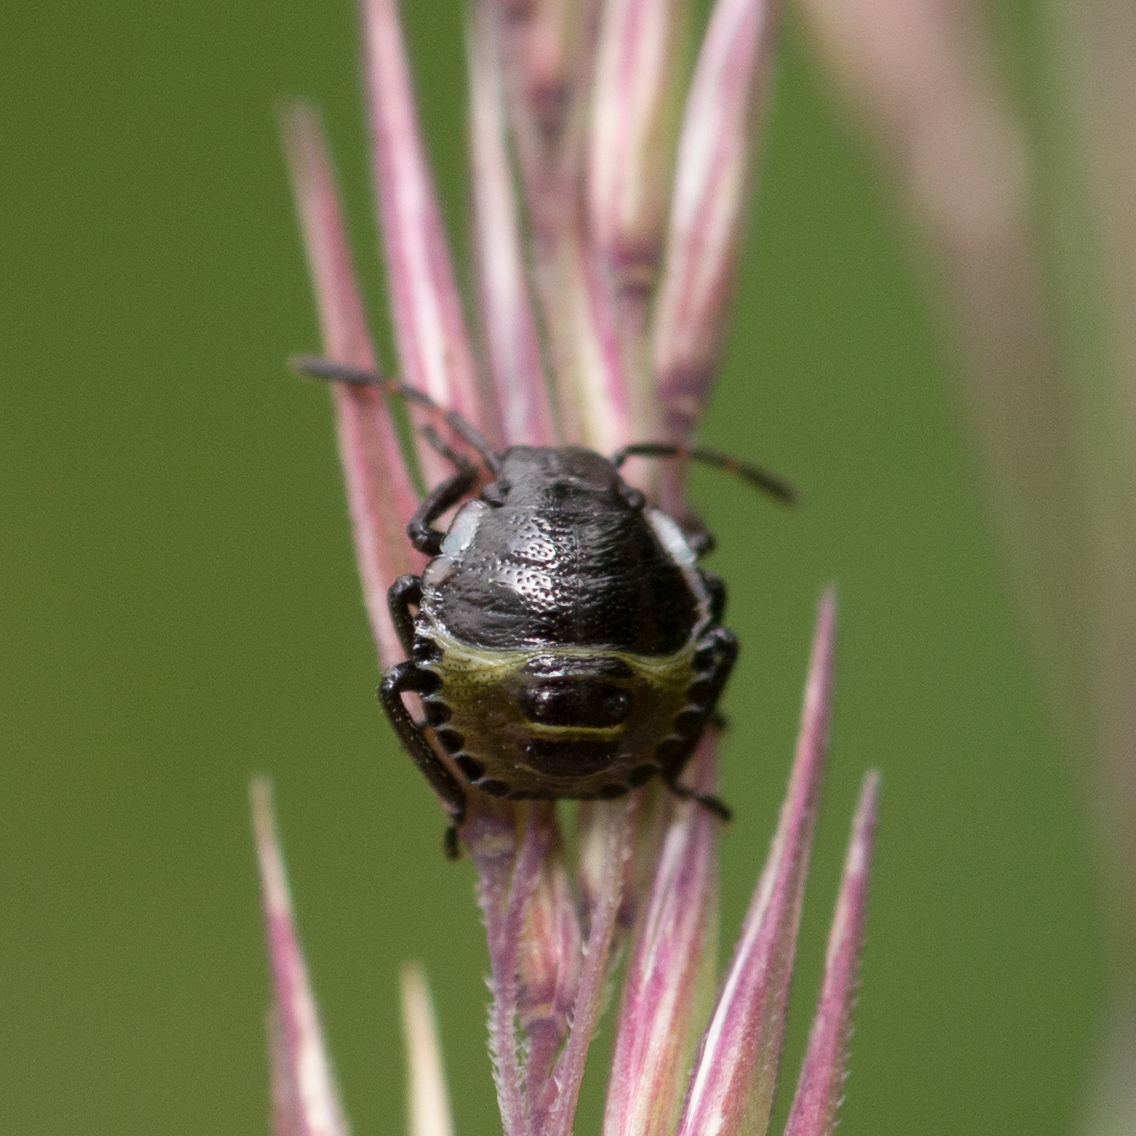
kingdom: Animalia
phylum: Arthropoda
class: Insecta
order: Hemiptera
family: Pentatomidae
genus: Palomena
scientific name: Palomena prasina
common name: Green shieldbug
